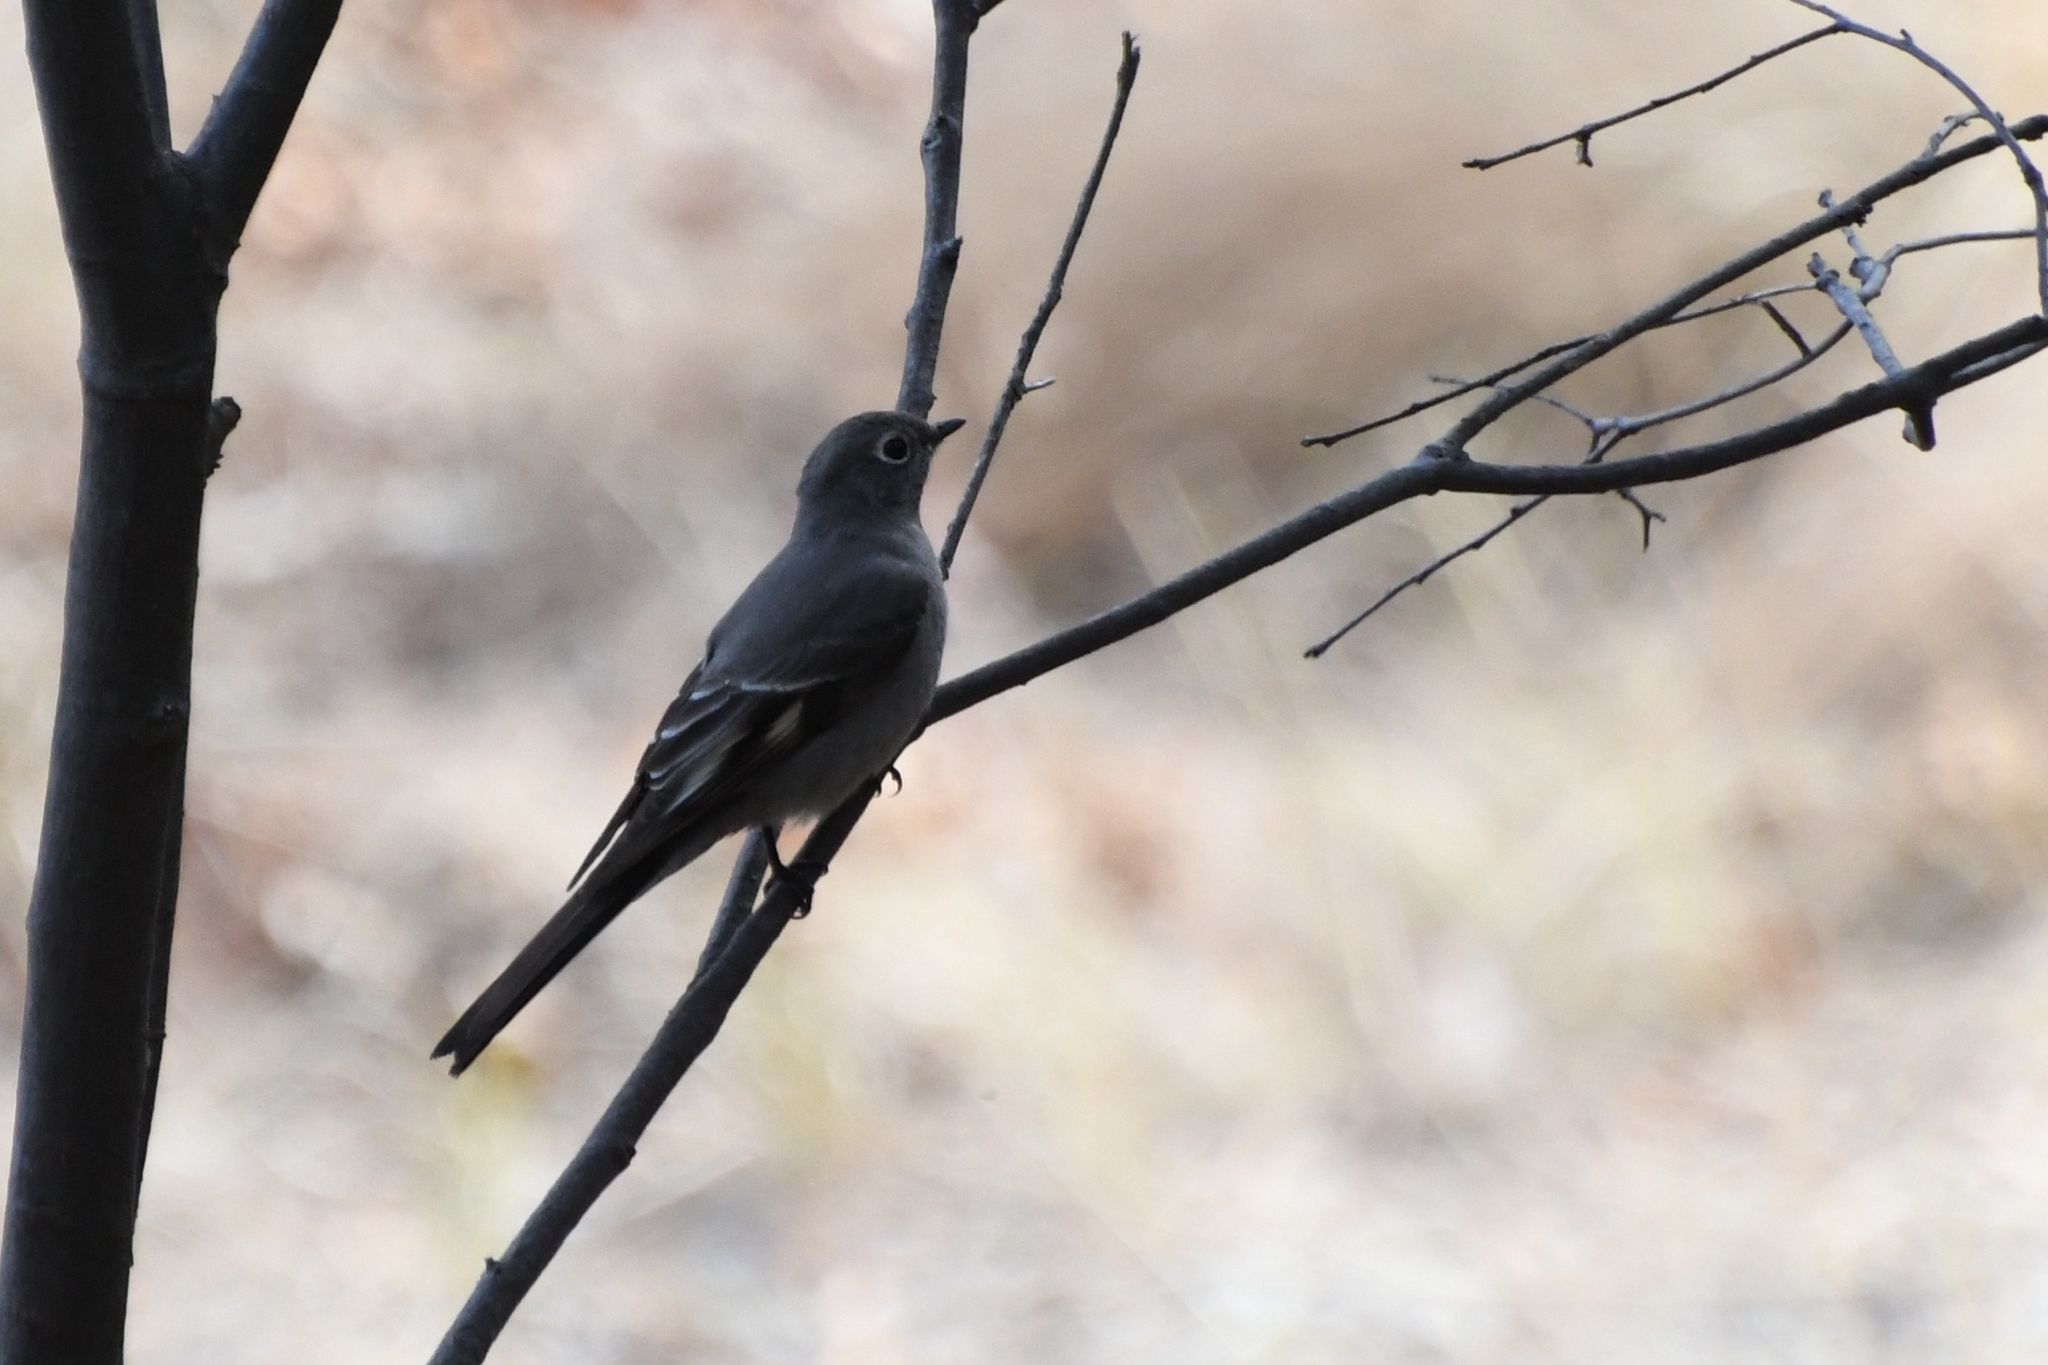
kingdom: Animalia
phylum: Chordata
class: Aves
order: Passeriformes
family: Turdidae
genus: Myadestes
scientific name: Myadestes townsendi
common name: Townsend's solitaire
